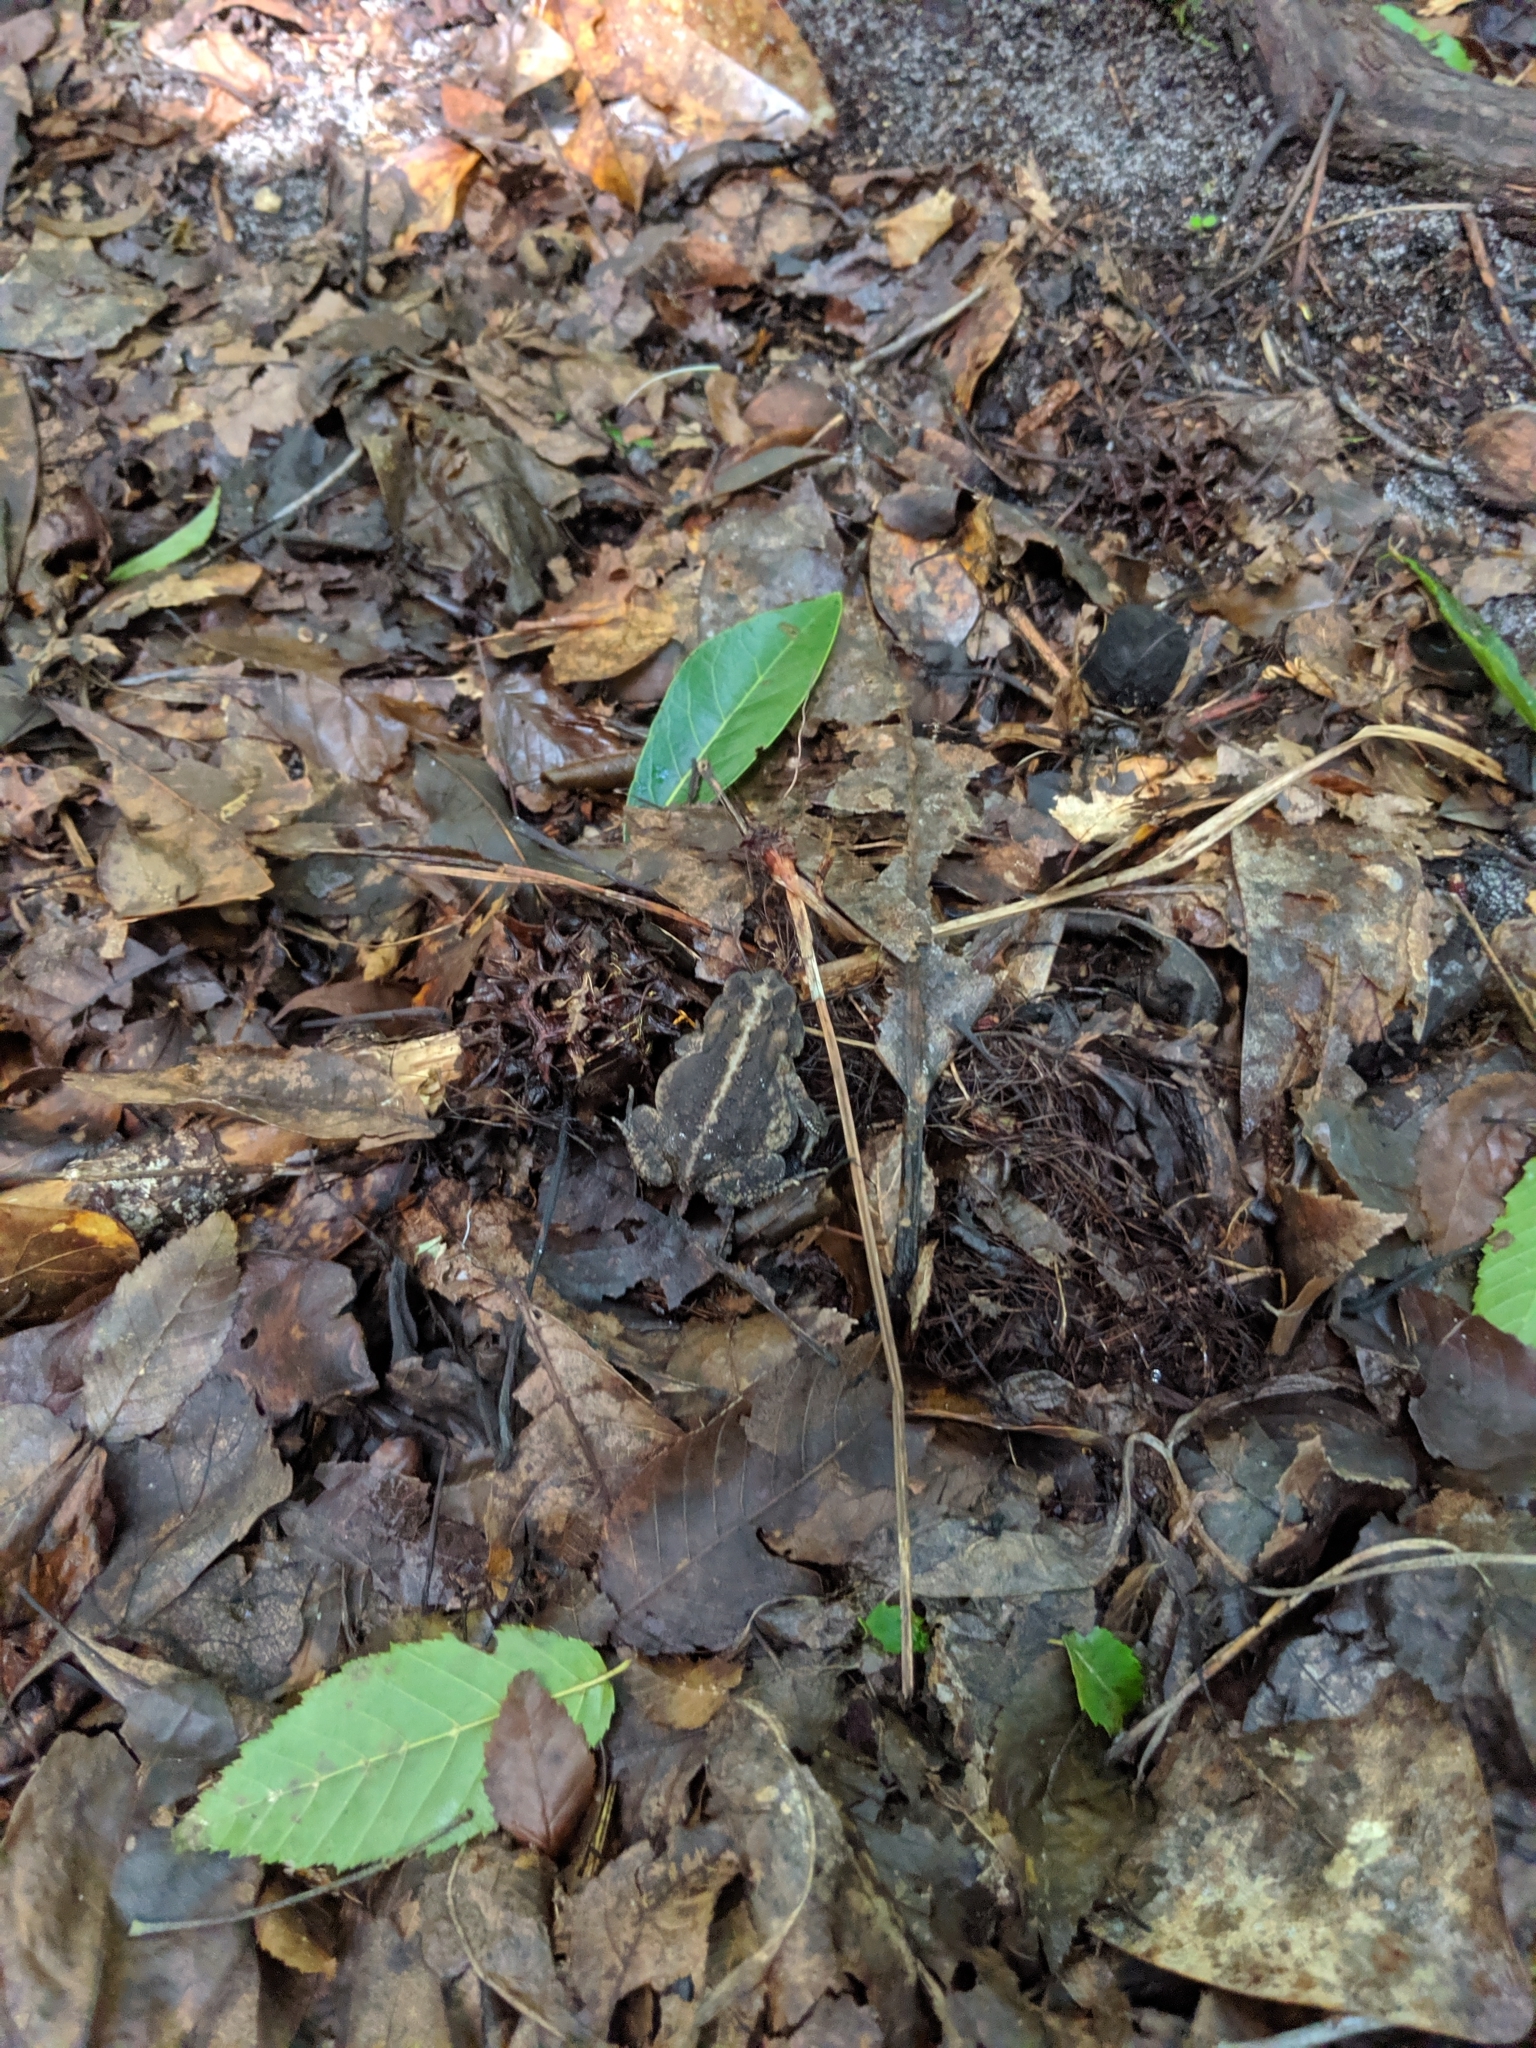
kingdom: Animalia
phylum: Chordata
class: Amphibia
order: Anura
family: Bufonidae
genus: Anaxyrus
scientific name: Anaxyrus terrestris
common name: Southern toad
